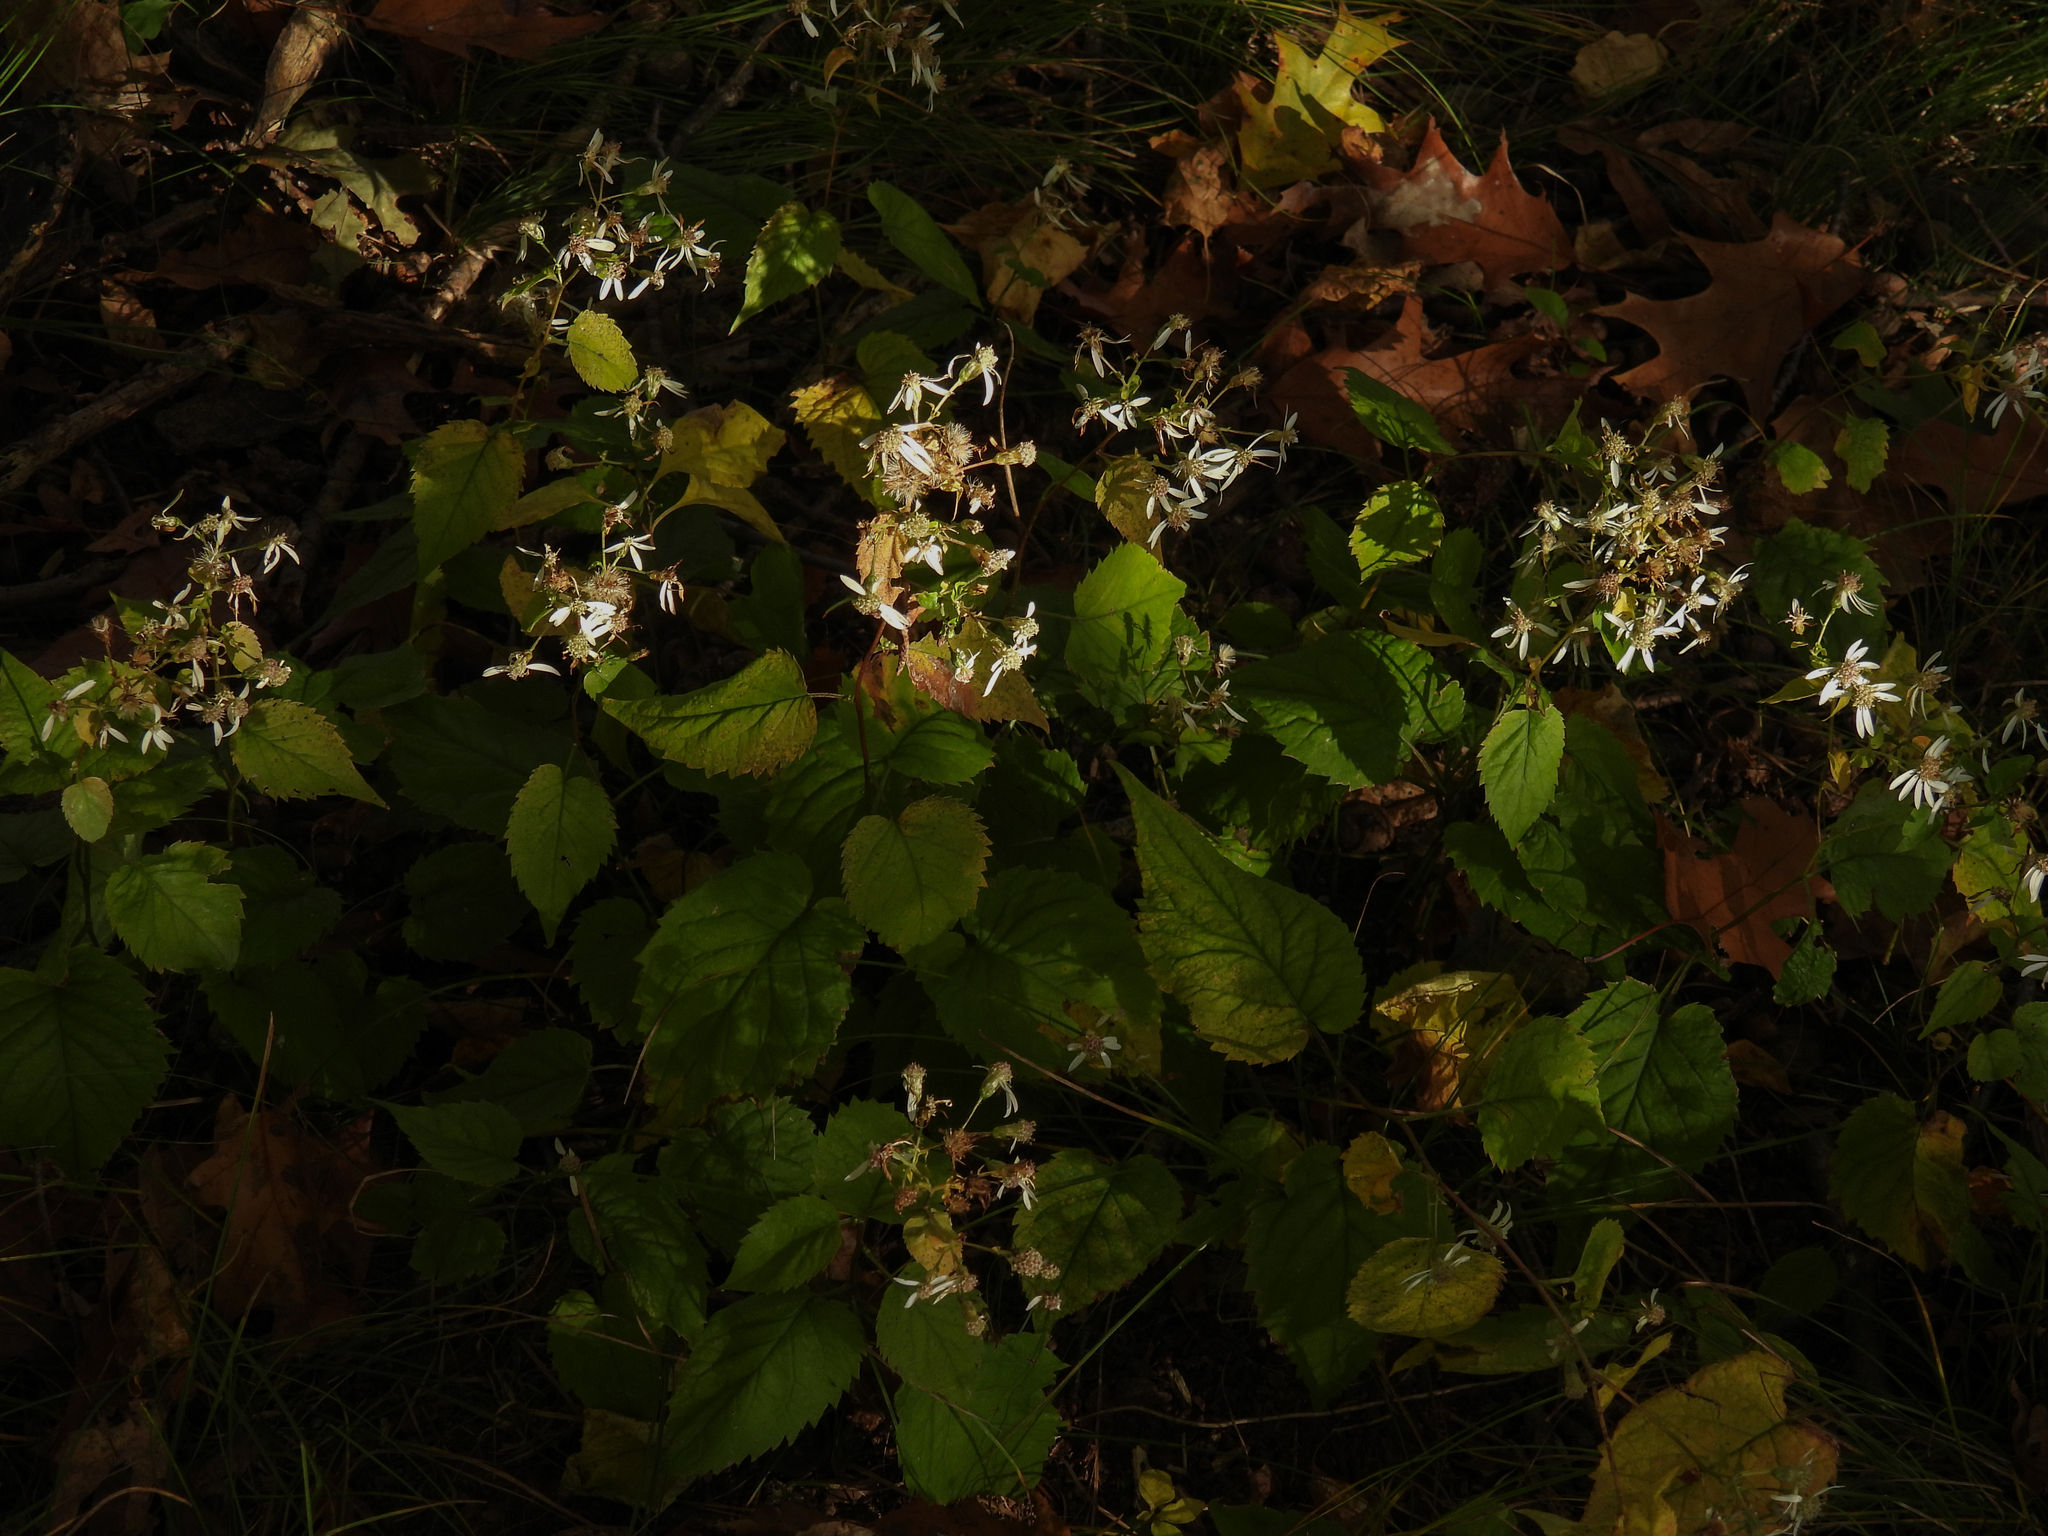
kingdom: Plantae
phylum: Tracheophyta
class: Magnoliopsida
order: Asterales
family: Asteraceae
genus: Eurybia
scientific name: Eurybia divaricata
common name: White wood aster
